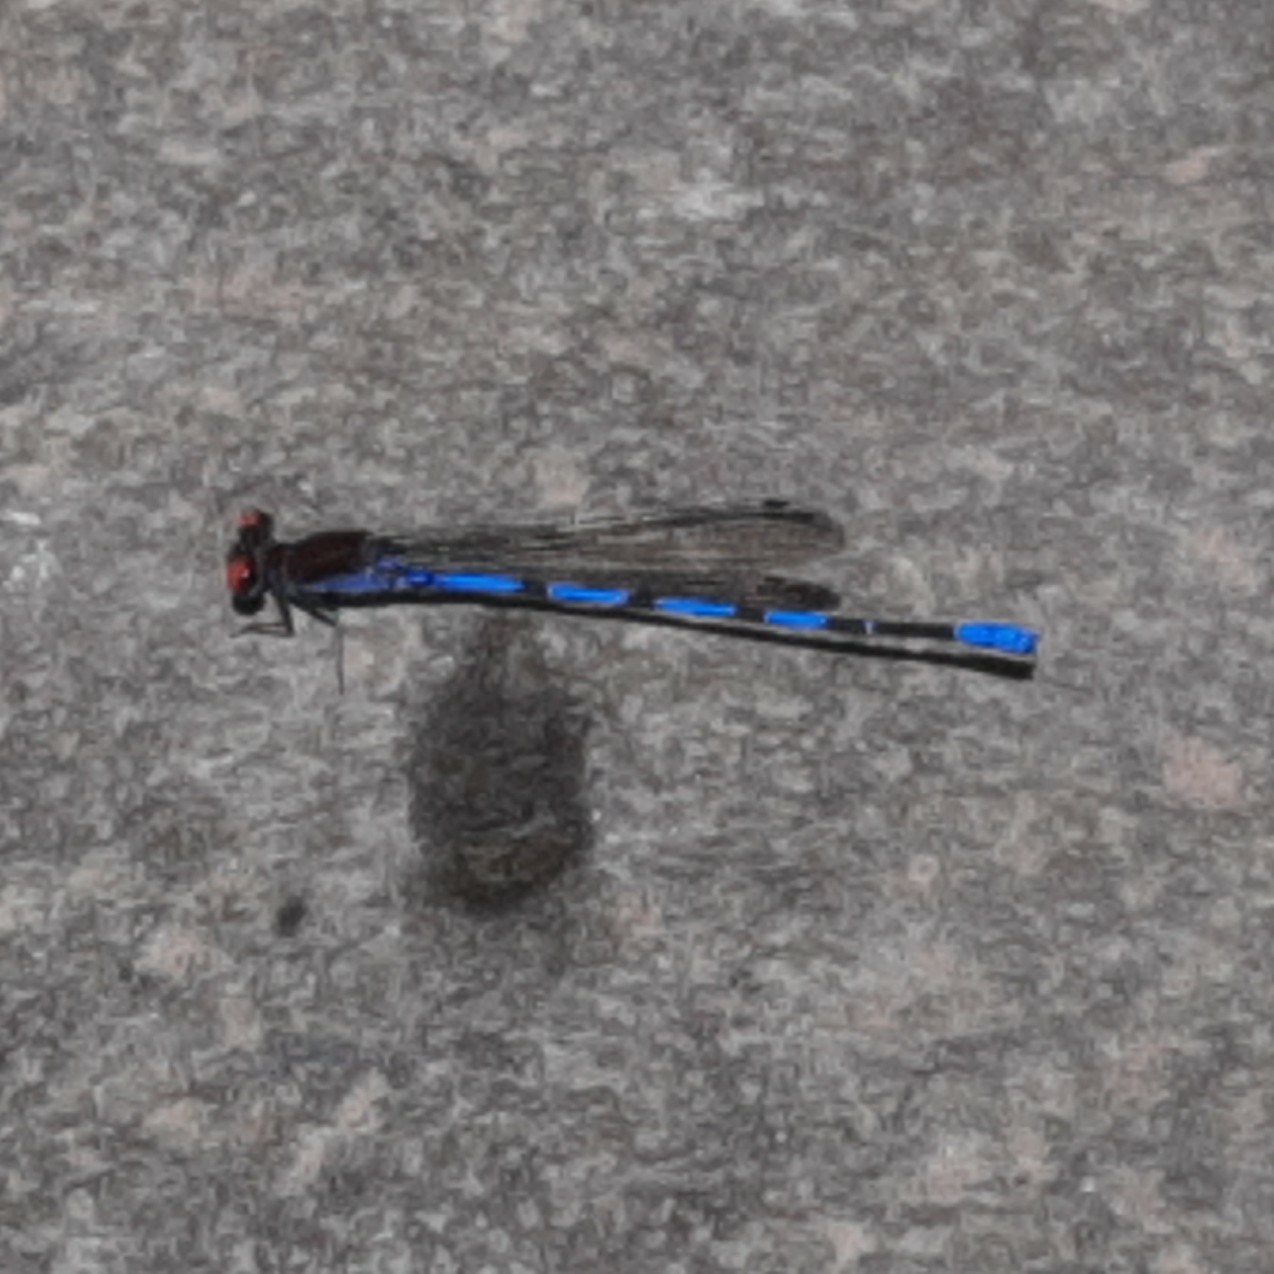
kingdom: Animalia
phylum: Arthropoda
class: Insecta
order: Odonata
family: Coenagrionidae
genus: Argia
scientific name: Argia oenea
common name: Fiery-eyed dancer
